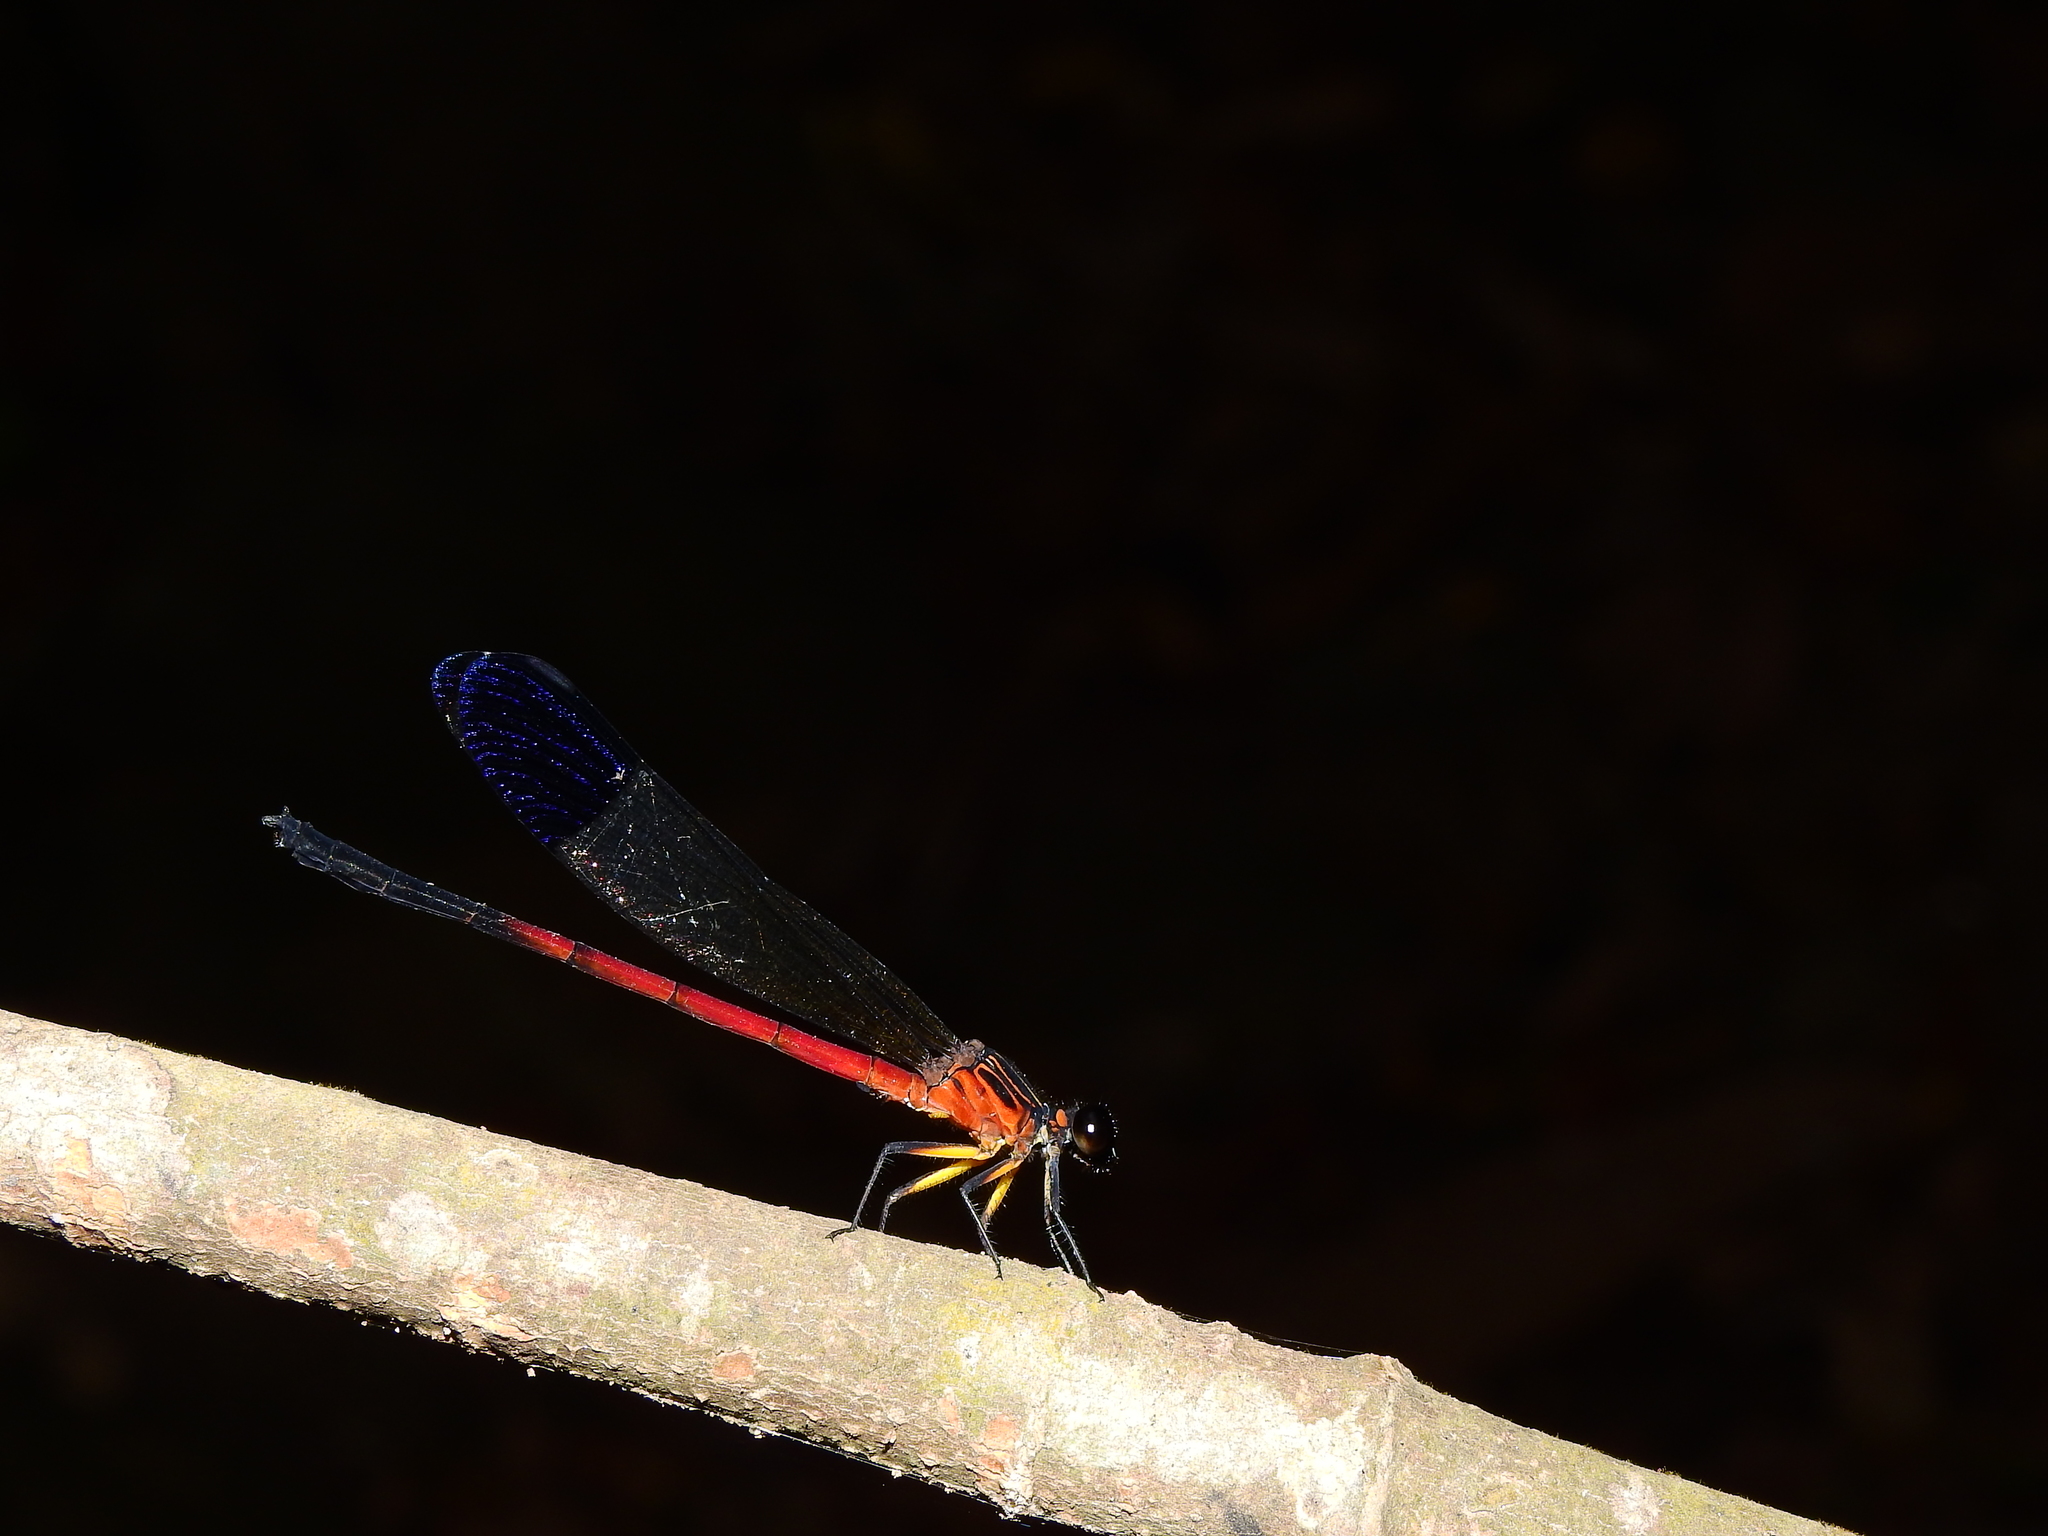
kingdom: Animalia
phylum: Arthropoda
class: Insecta
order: Odonata
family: Euphaeidae
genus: Euphaea
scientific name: Euphaea dispar
